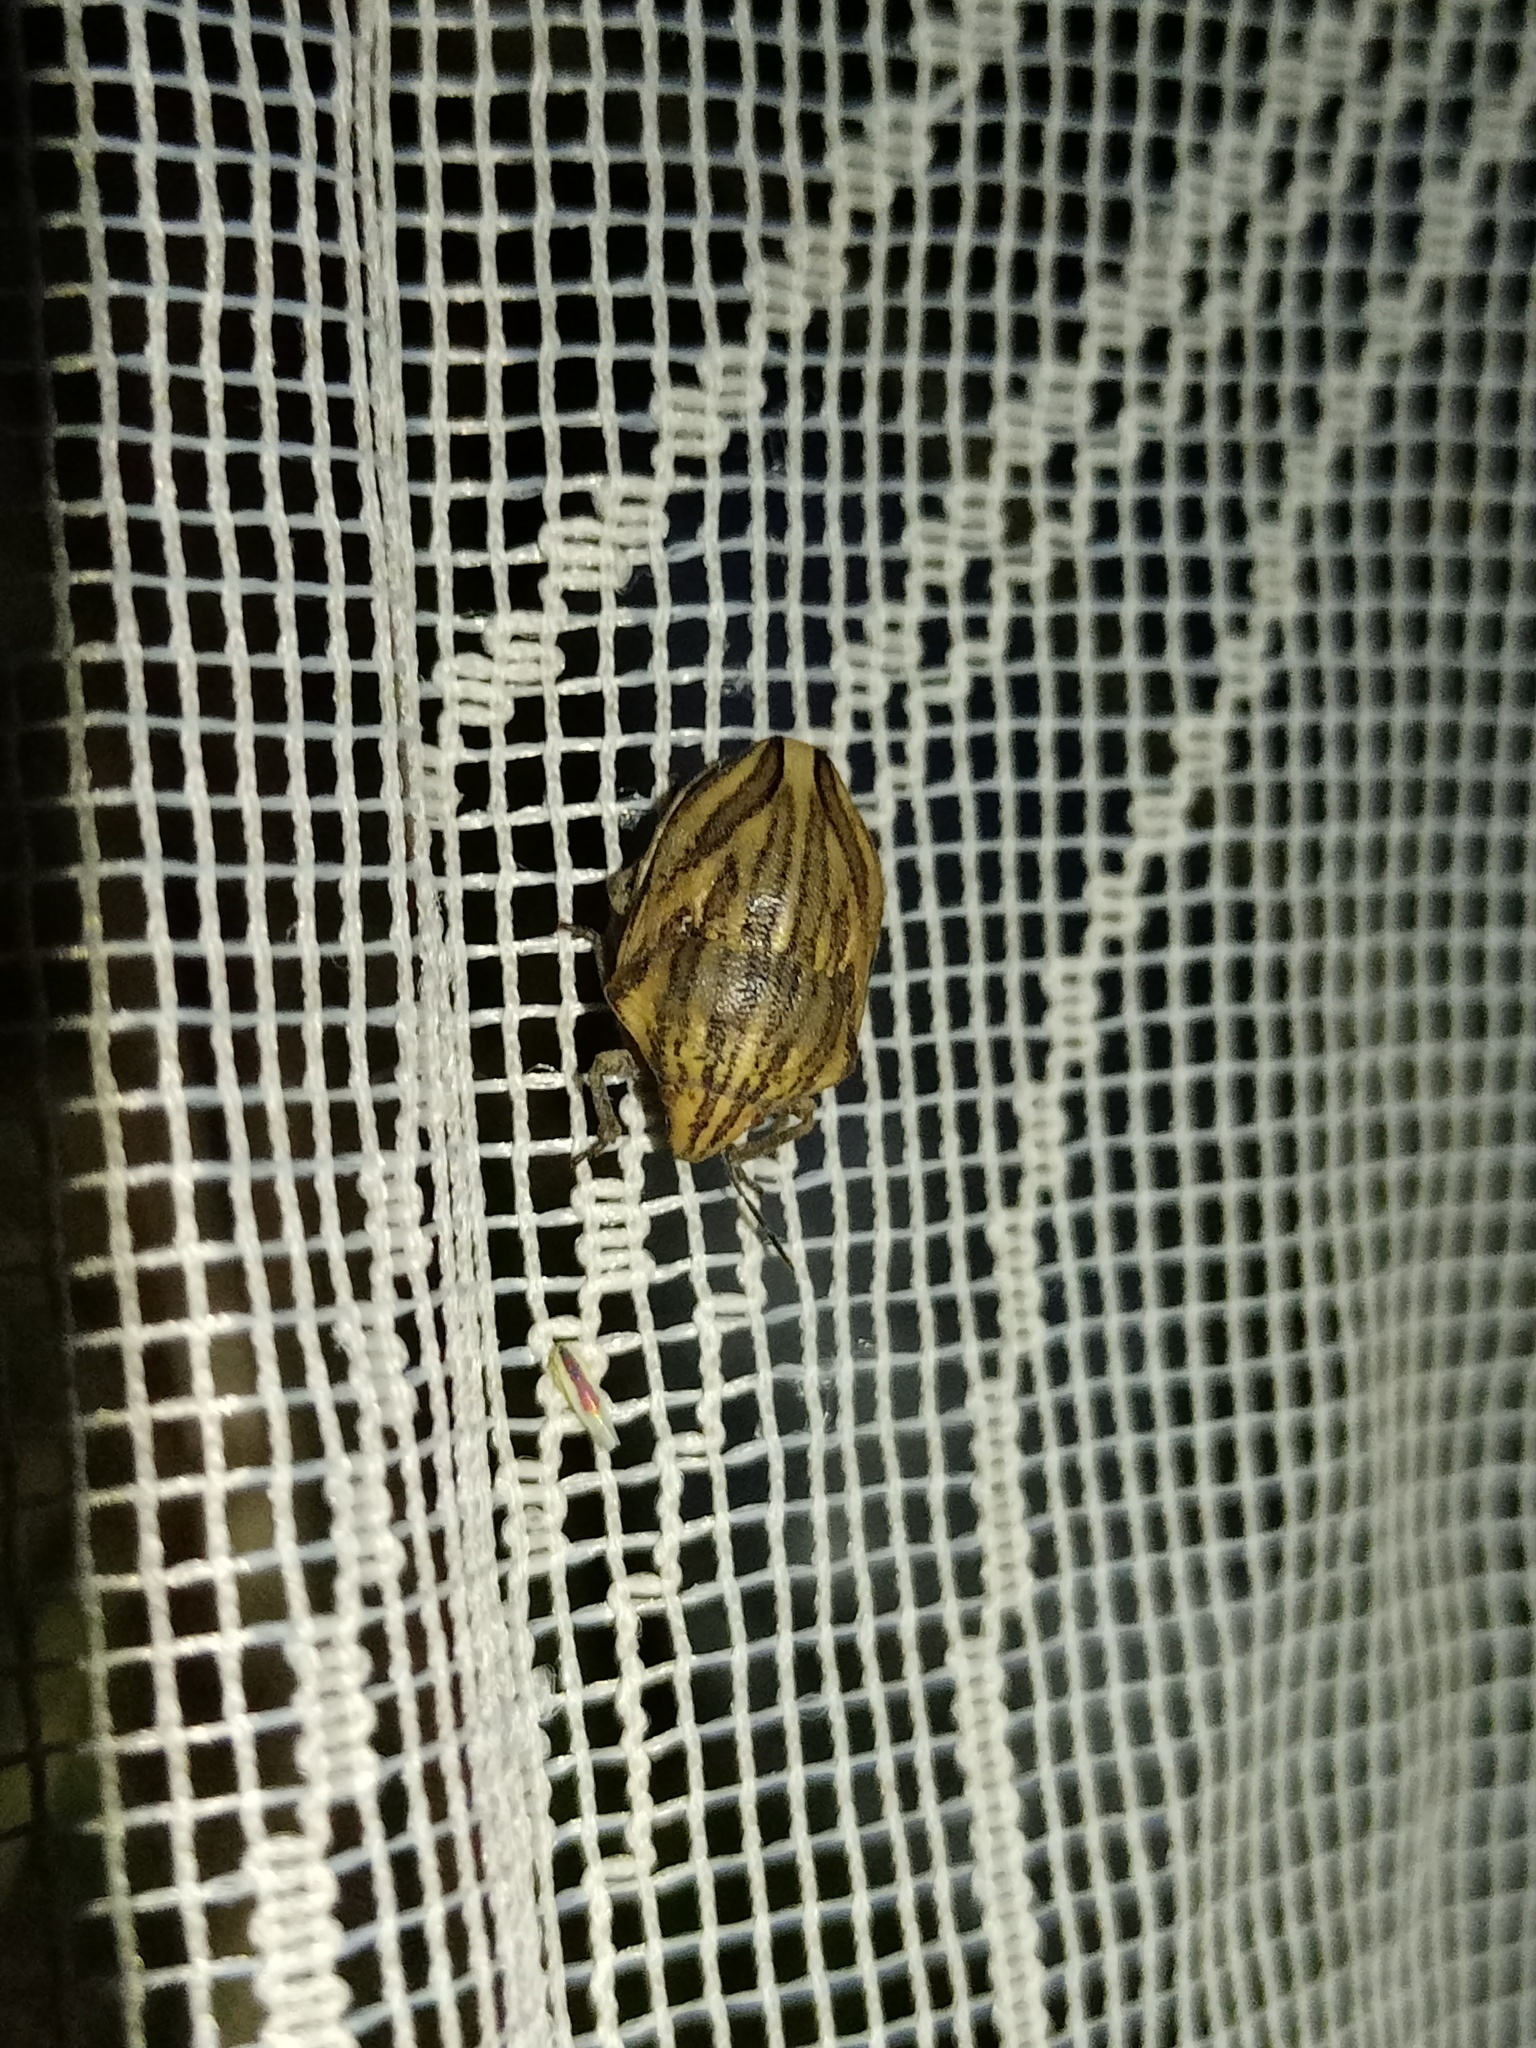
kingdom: Animalia
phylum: Arthropoda
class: Insecta
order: Hemiptera
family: Scutelleridae
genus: Odontotarsus
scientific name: Odontotarsus purpureolineatus
